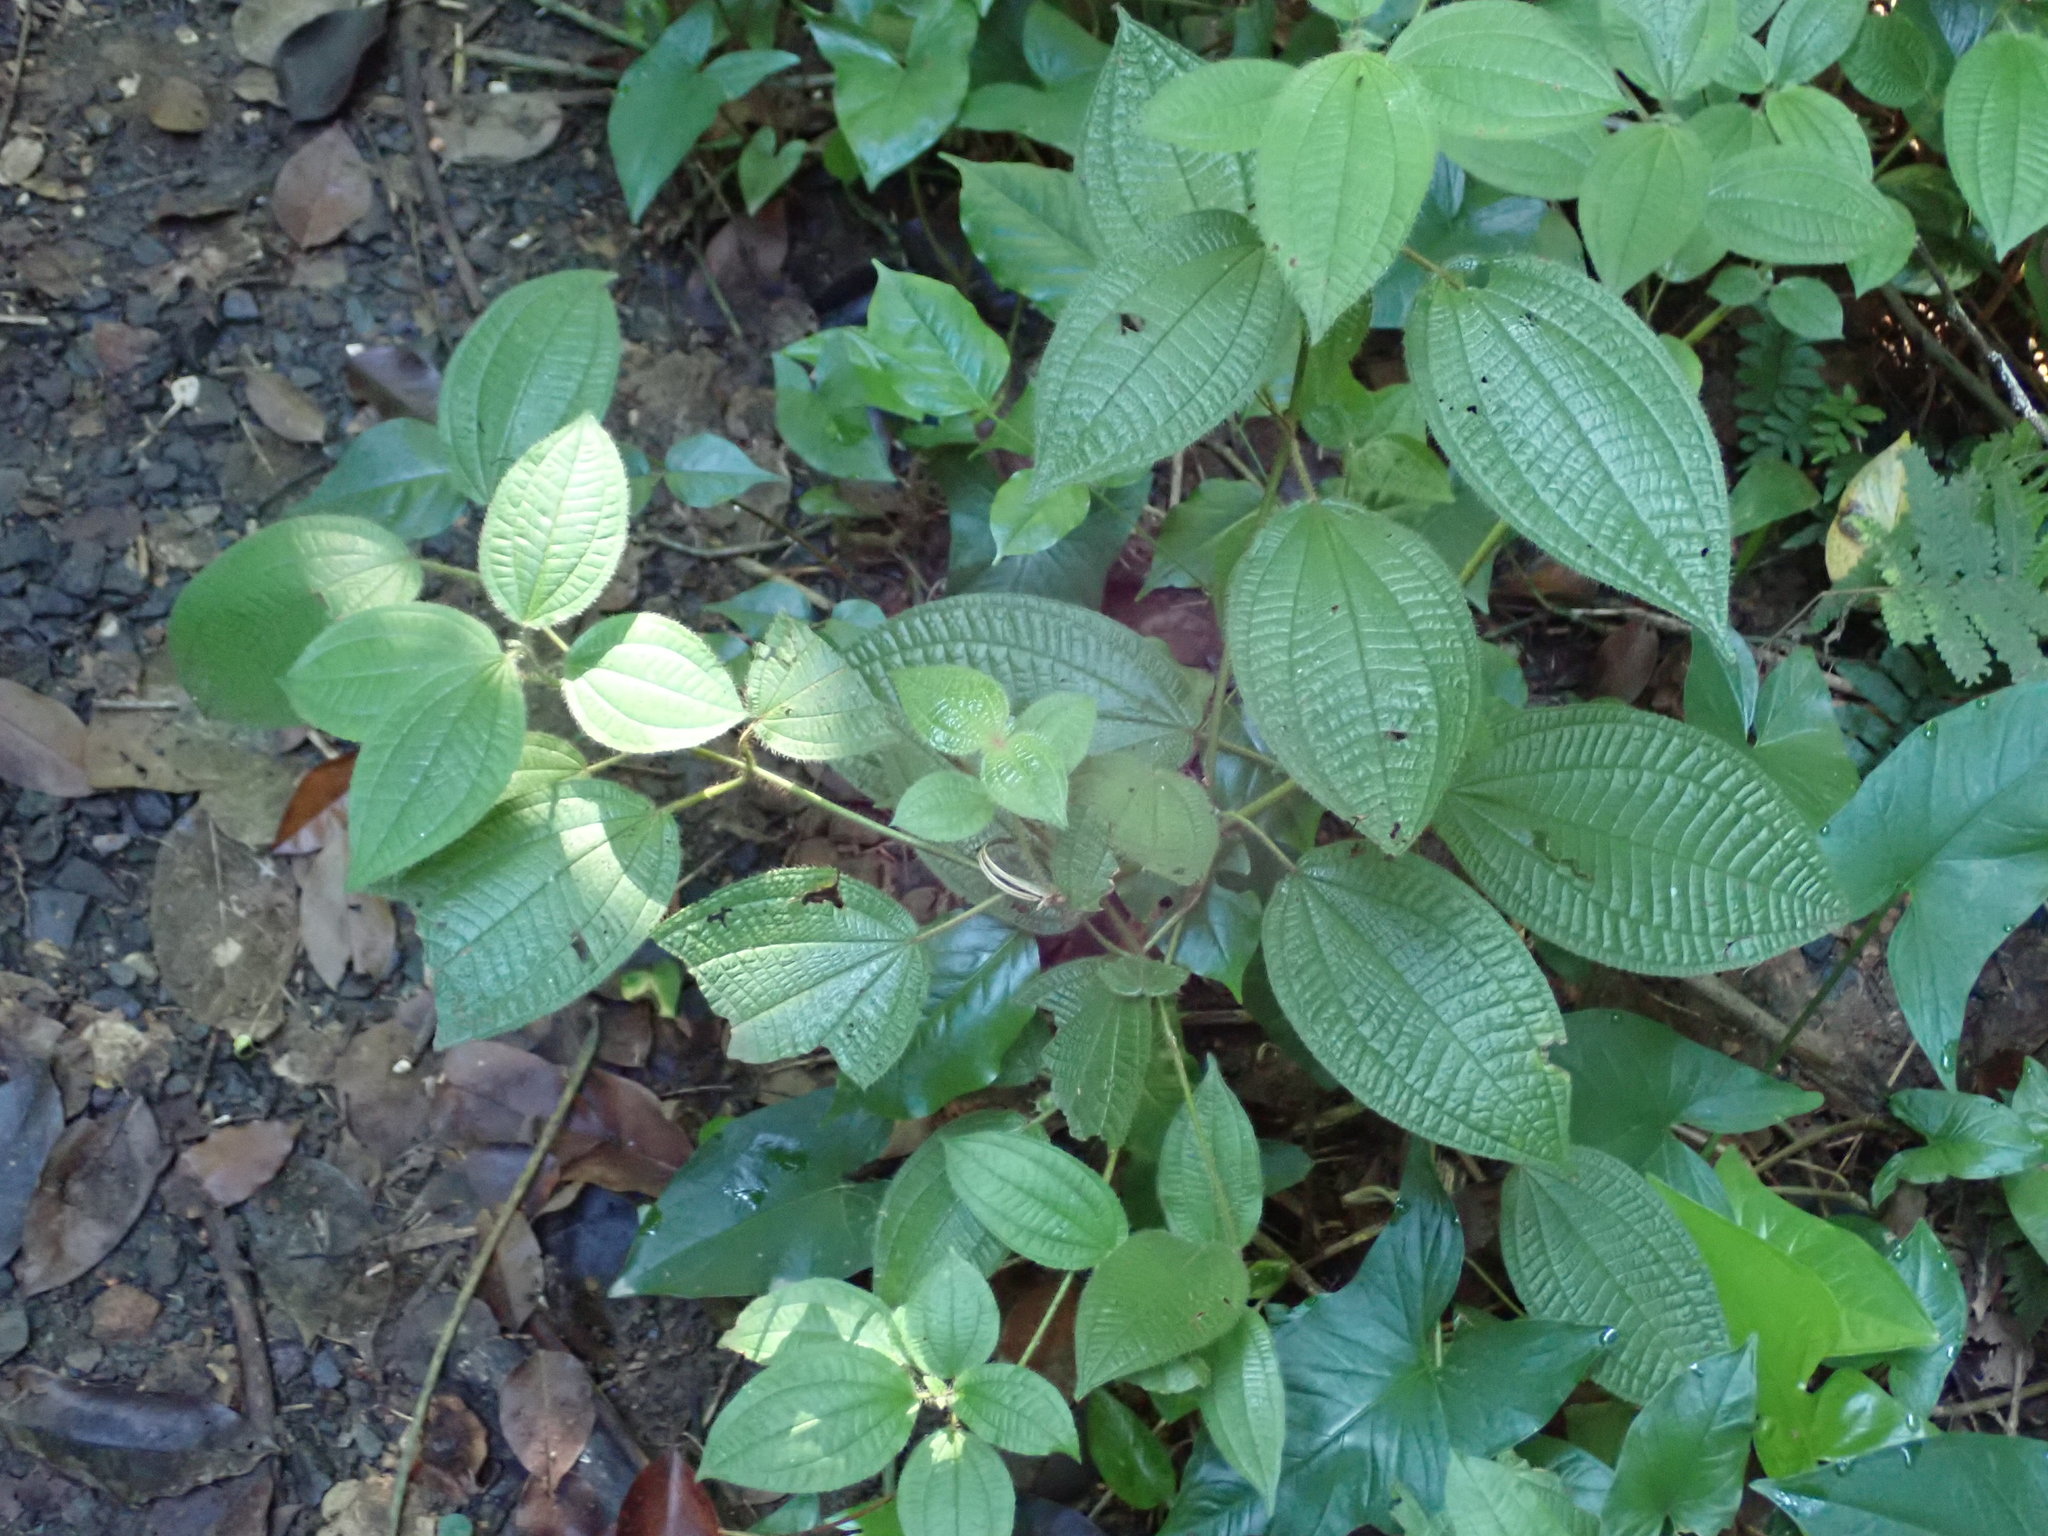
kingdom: Plantae
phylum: Tracheophyta
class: Magnoliopsida
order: Myrtales
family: Melastomataceae
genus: Miconia
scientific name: Miconia crenata
